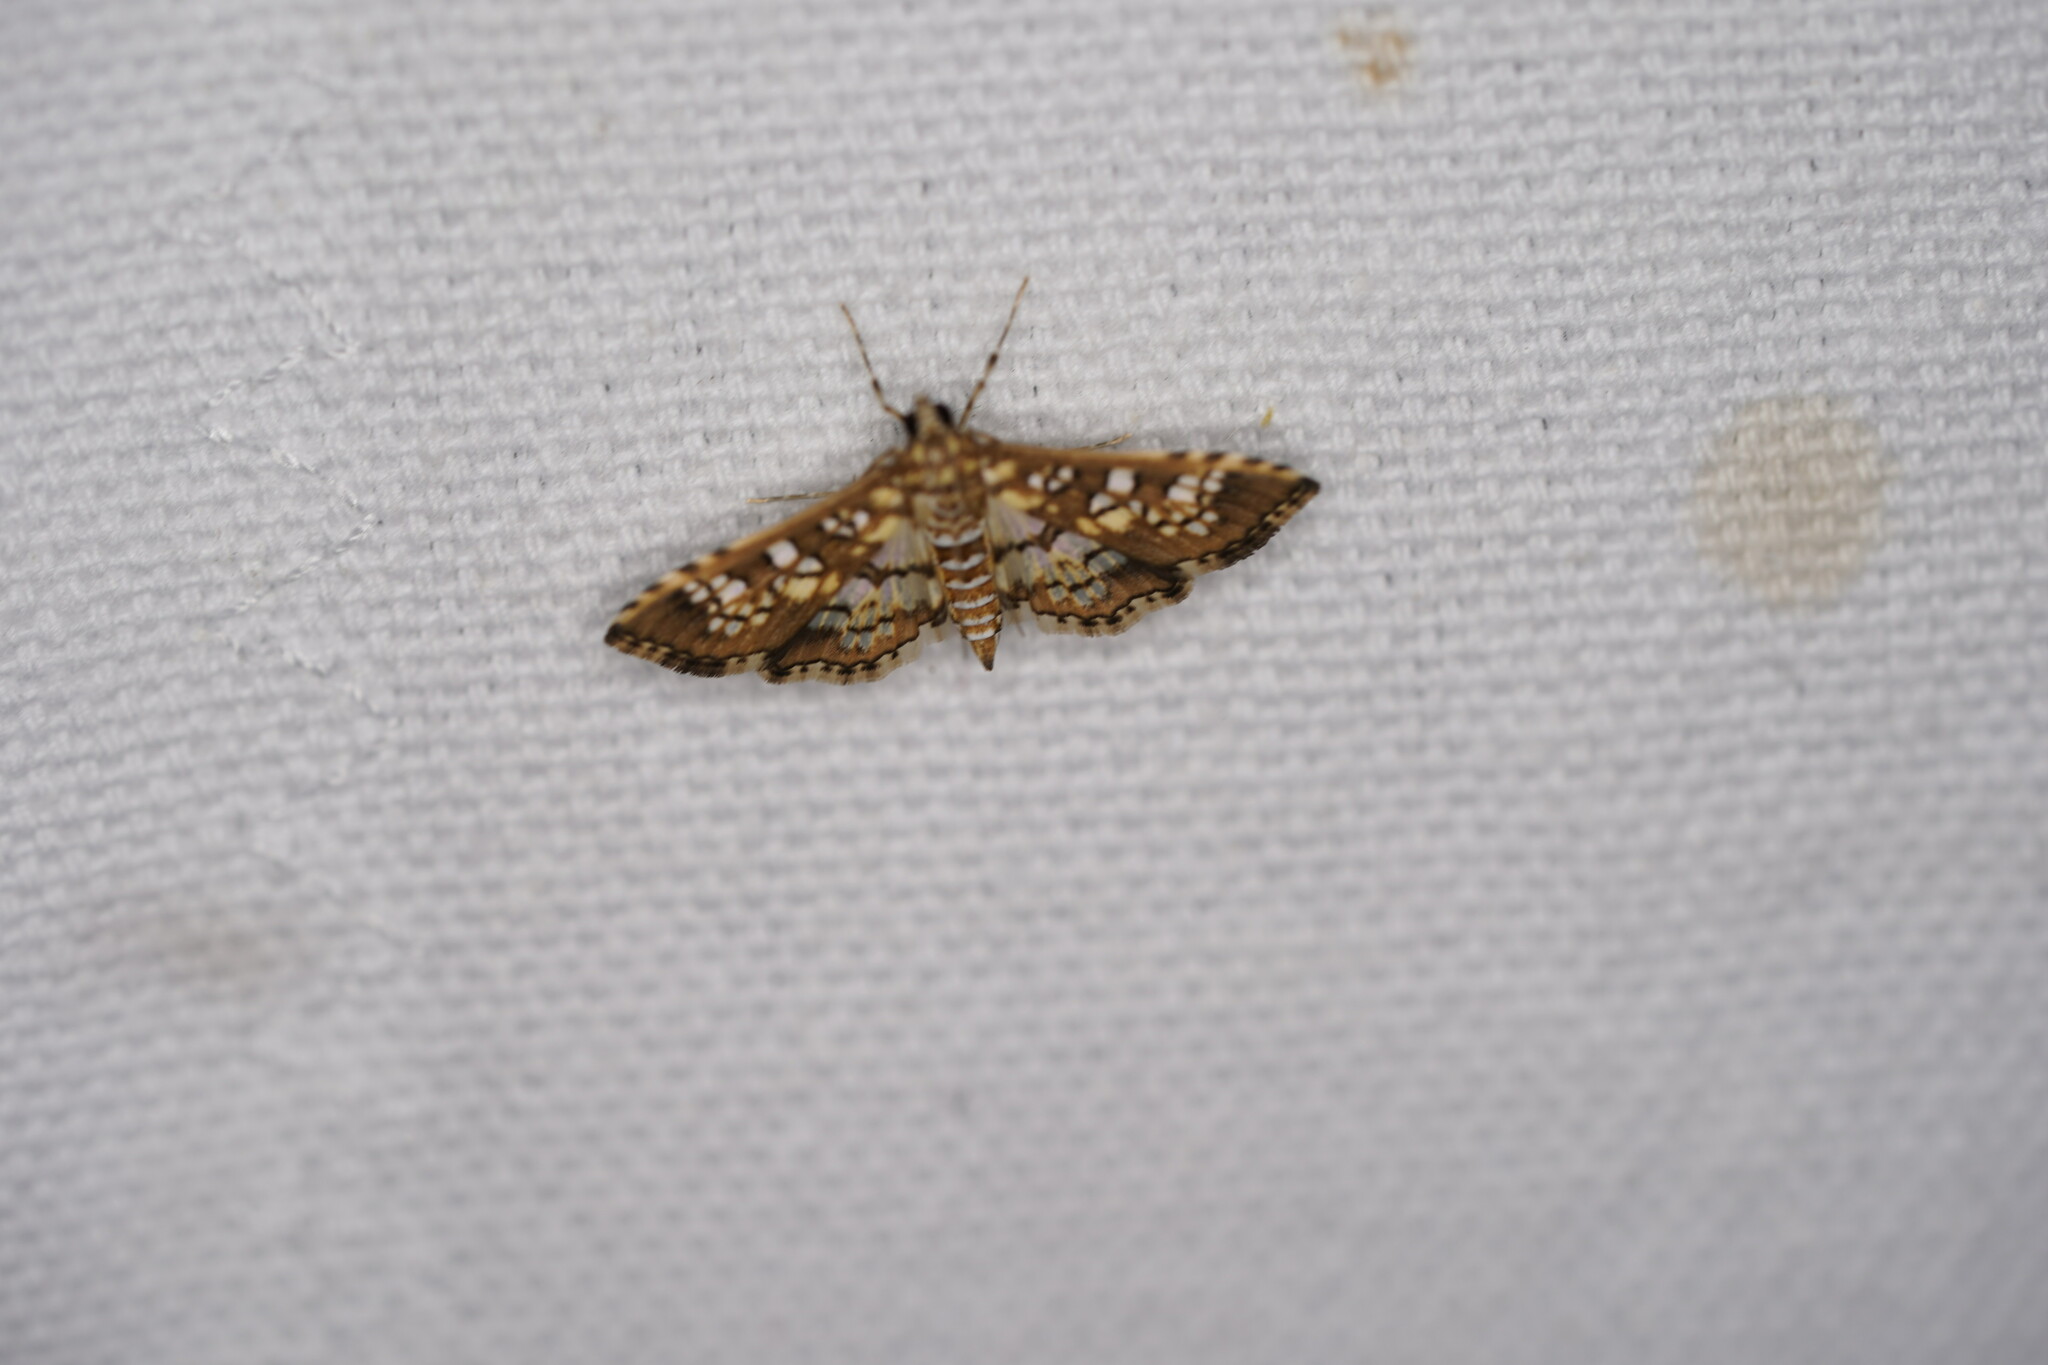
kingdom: Animalia
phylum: Arthropoda
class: Insecta
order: Lepidoptera
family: Crambidae
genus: Samea
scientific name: Samea ecclesialis
